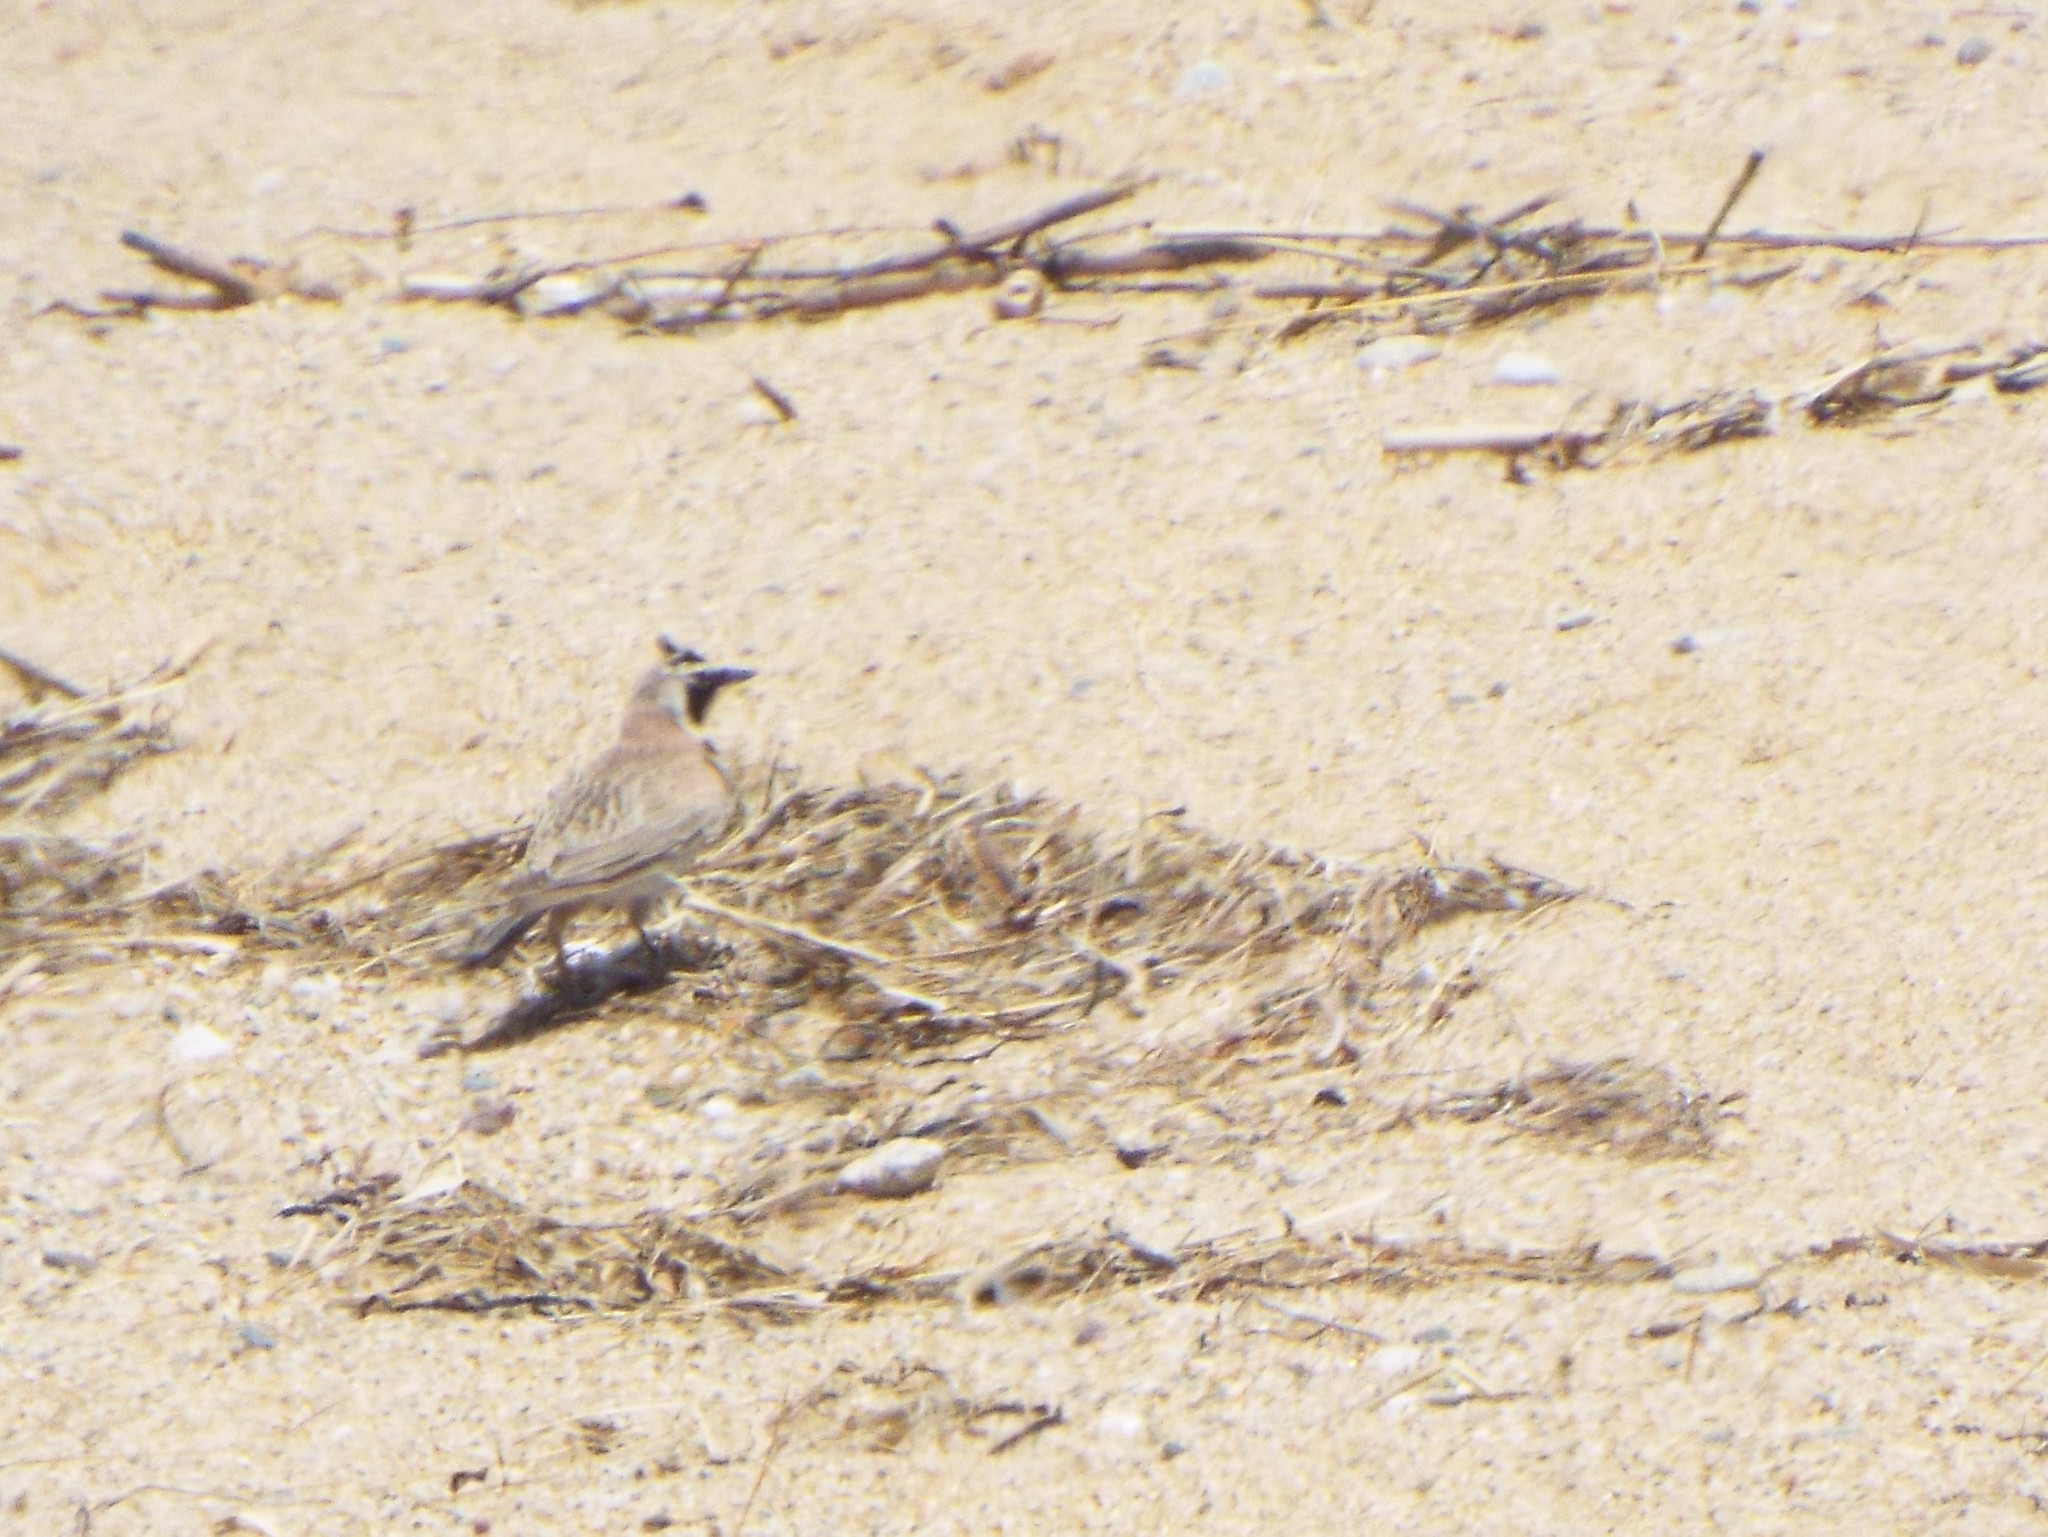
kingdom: Animalia
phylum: Chordata
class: Aves
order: Passeriformes
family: Alaudidae
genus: Eremophila
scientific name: Eremophila alpestris
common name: Horned lark
